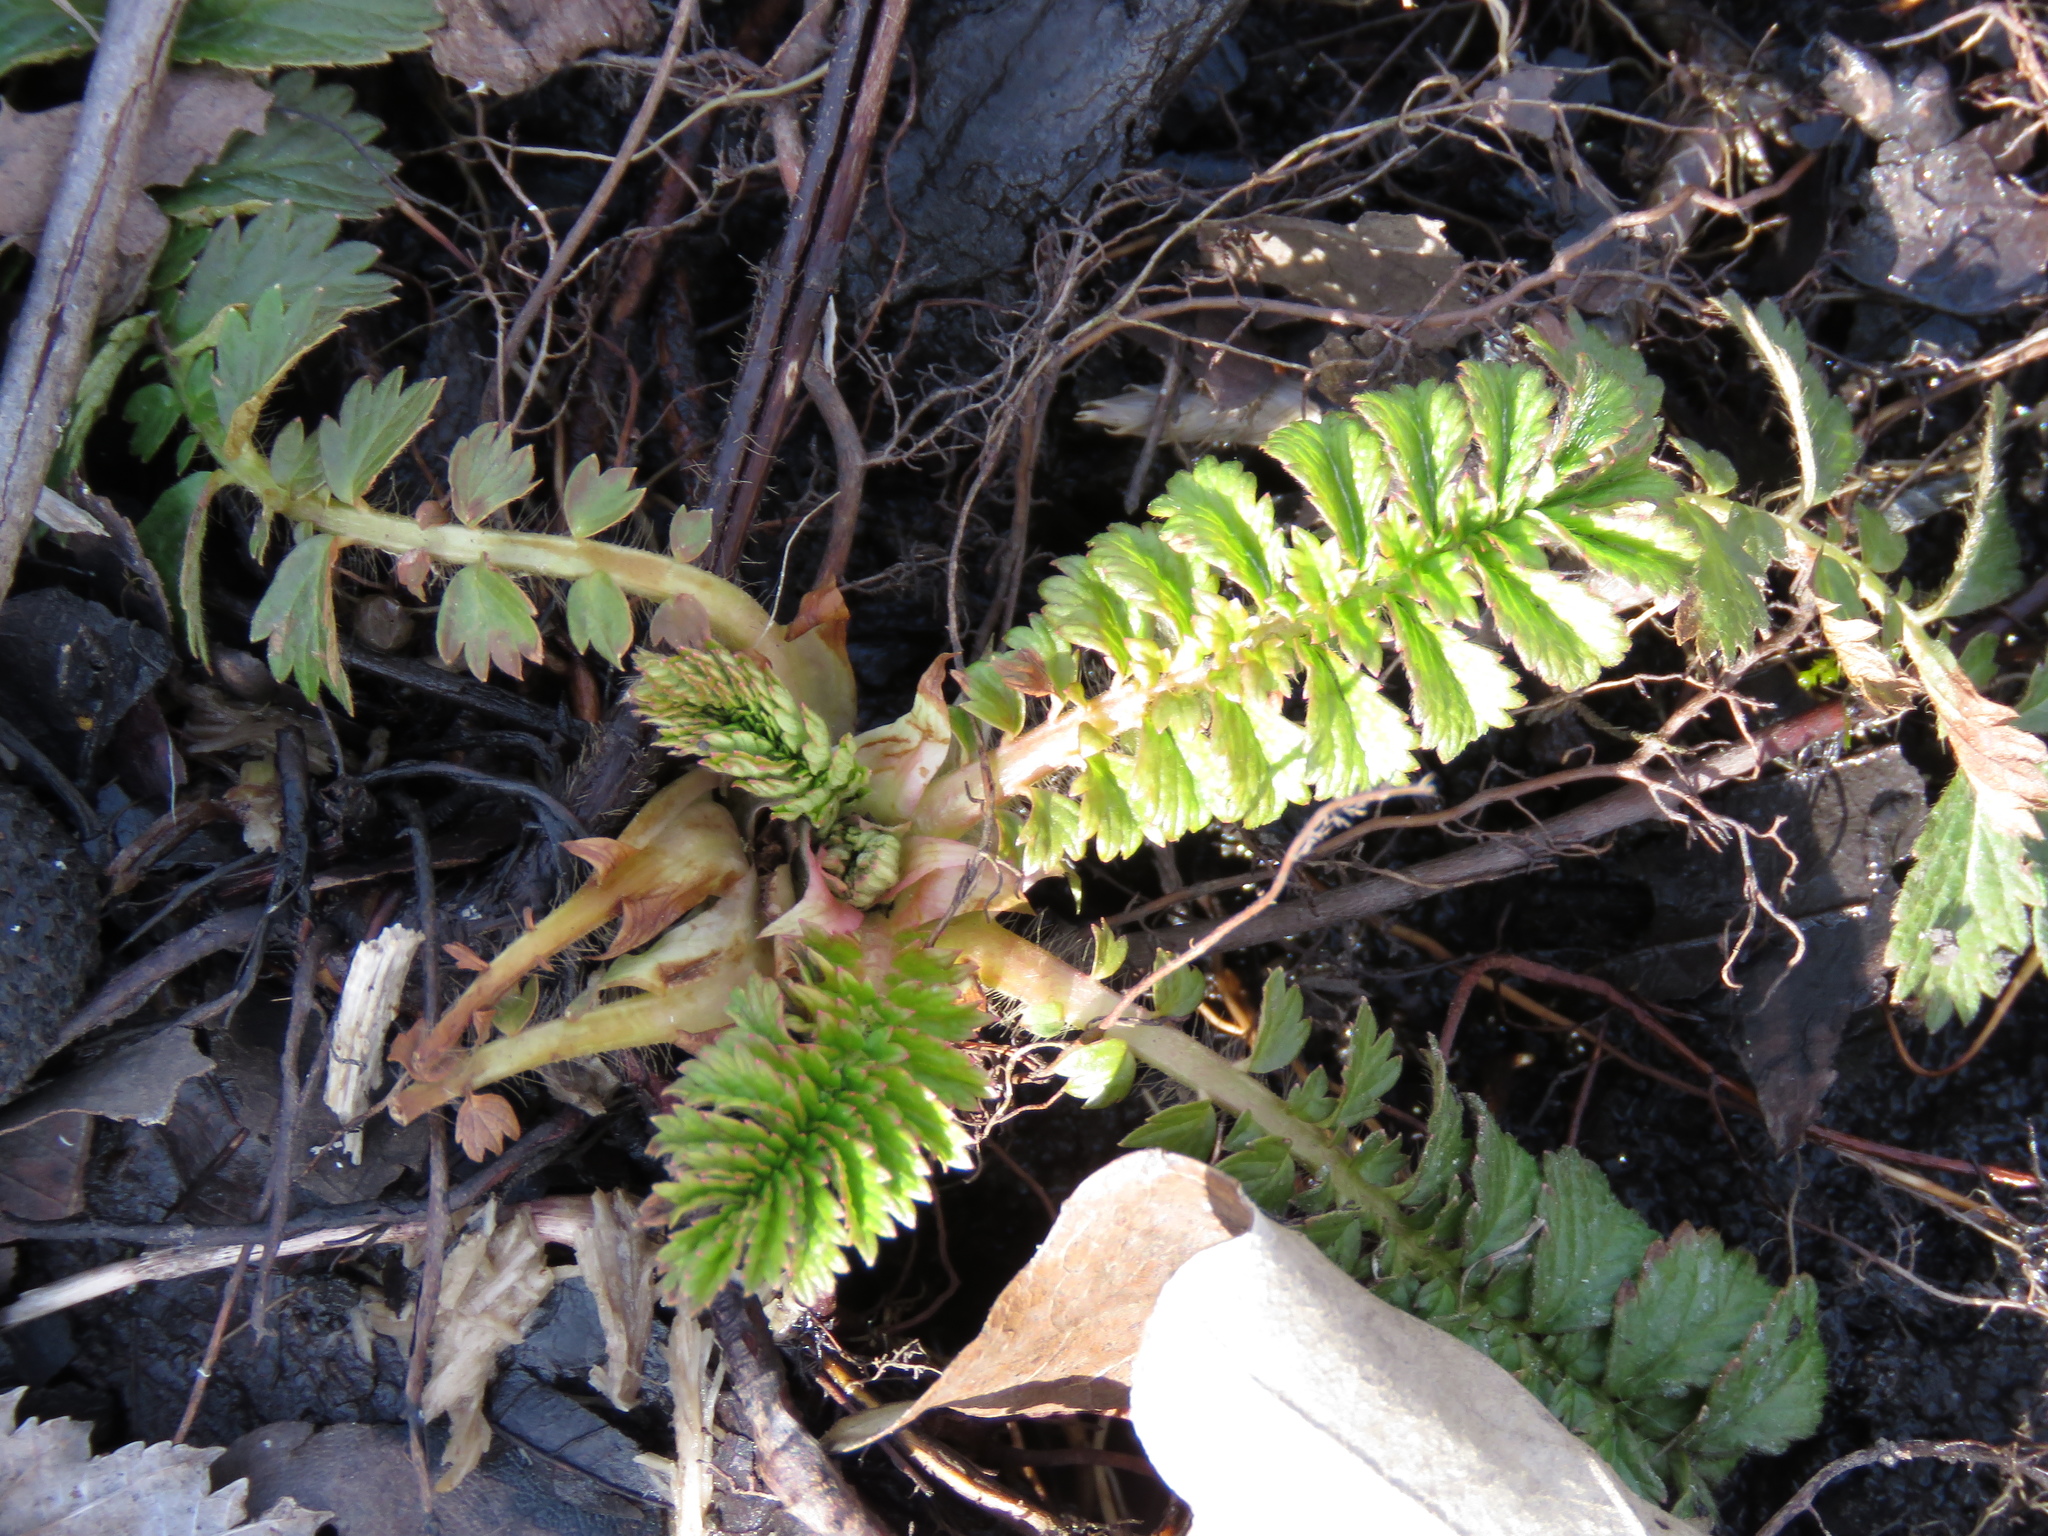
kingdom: Plantae
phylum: Tracheophyta
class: Magnoliopsida
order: Rosales
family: Rosaceae
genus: Agrimonia
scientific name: Agrimonia parviflora
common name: Harvest-lice
